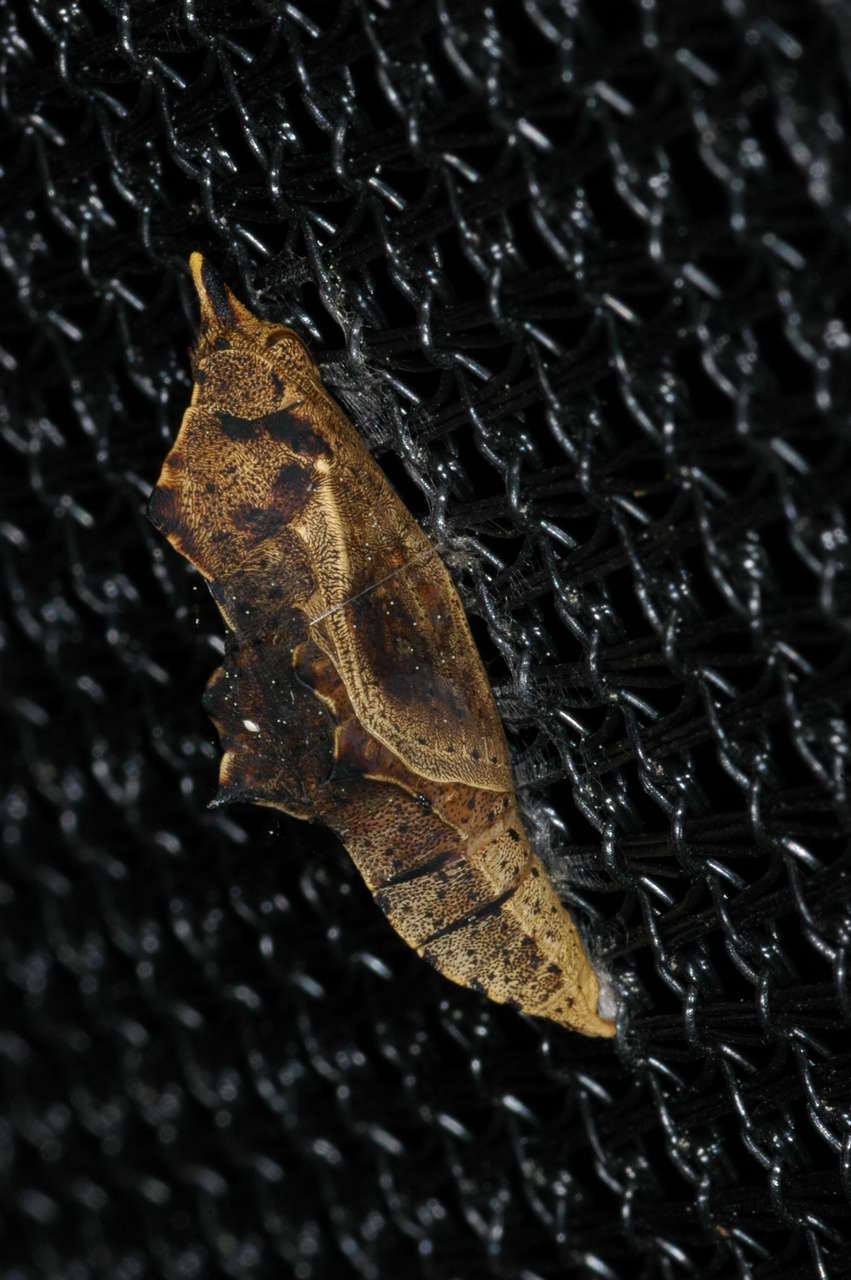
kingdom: Animalia
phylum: Arthropoda
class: Insecta
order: Lepidoptera
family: Pieridae
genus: Pieris
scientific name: Pieris rapae
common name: Small white
